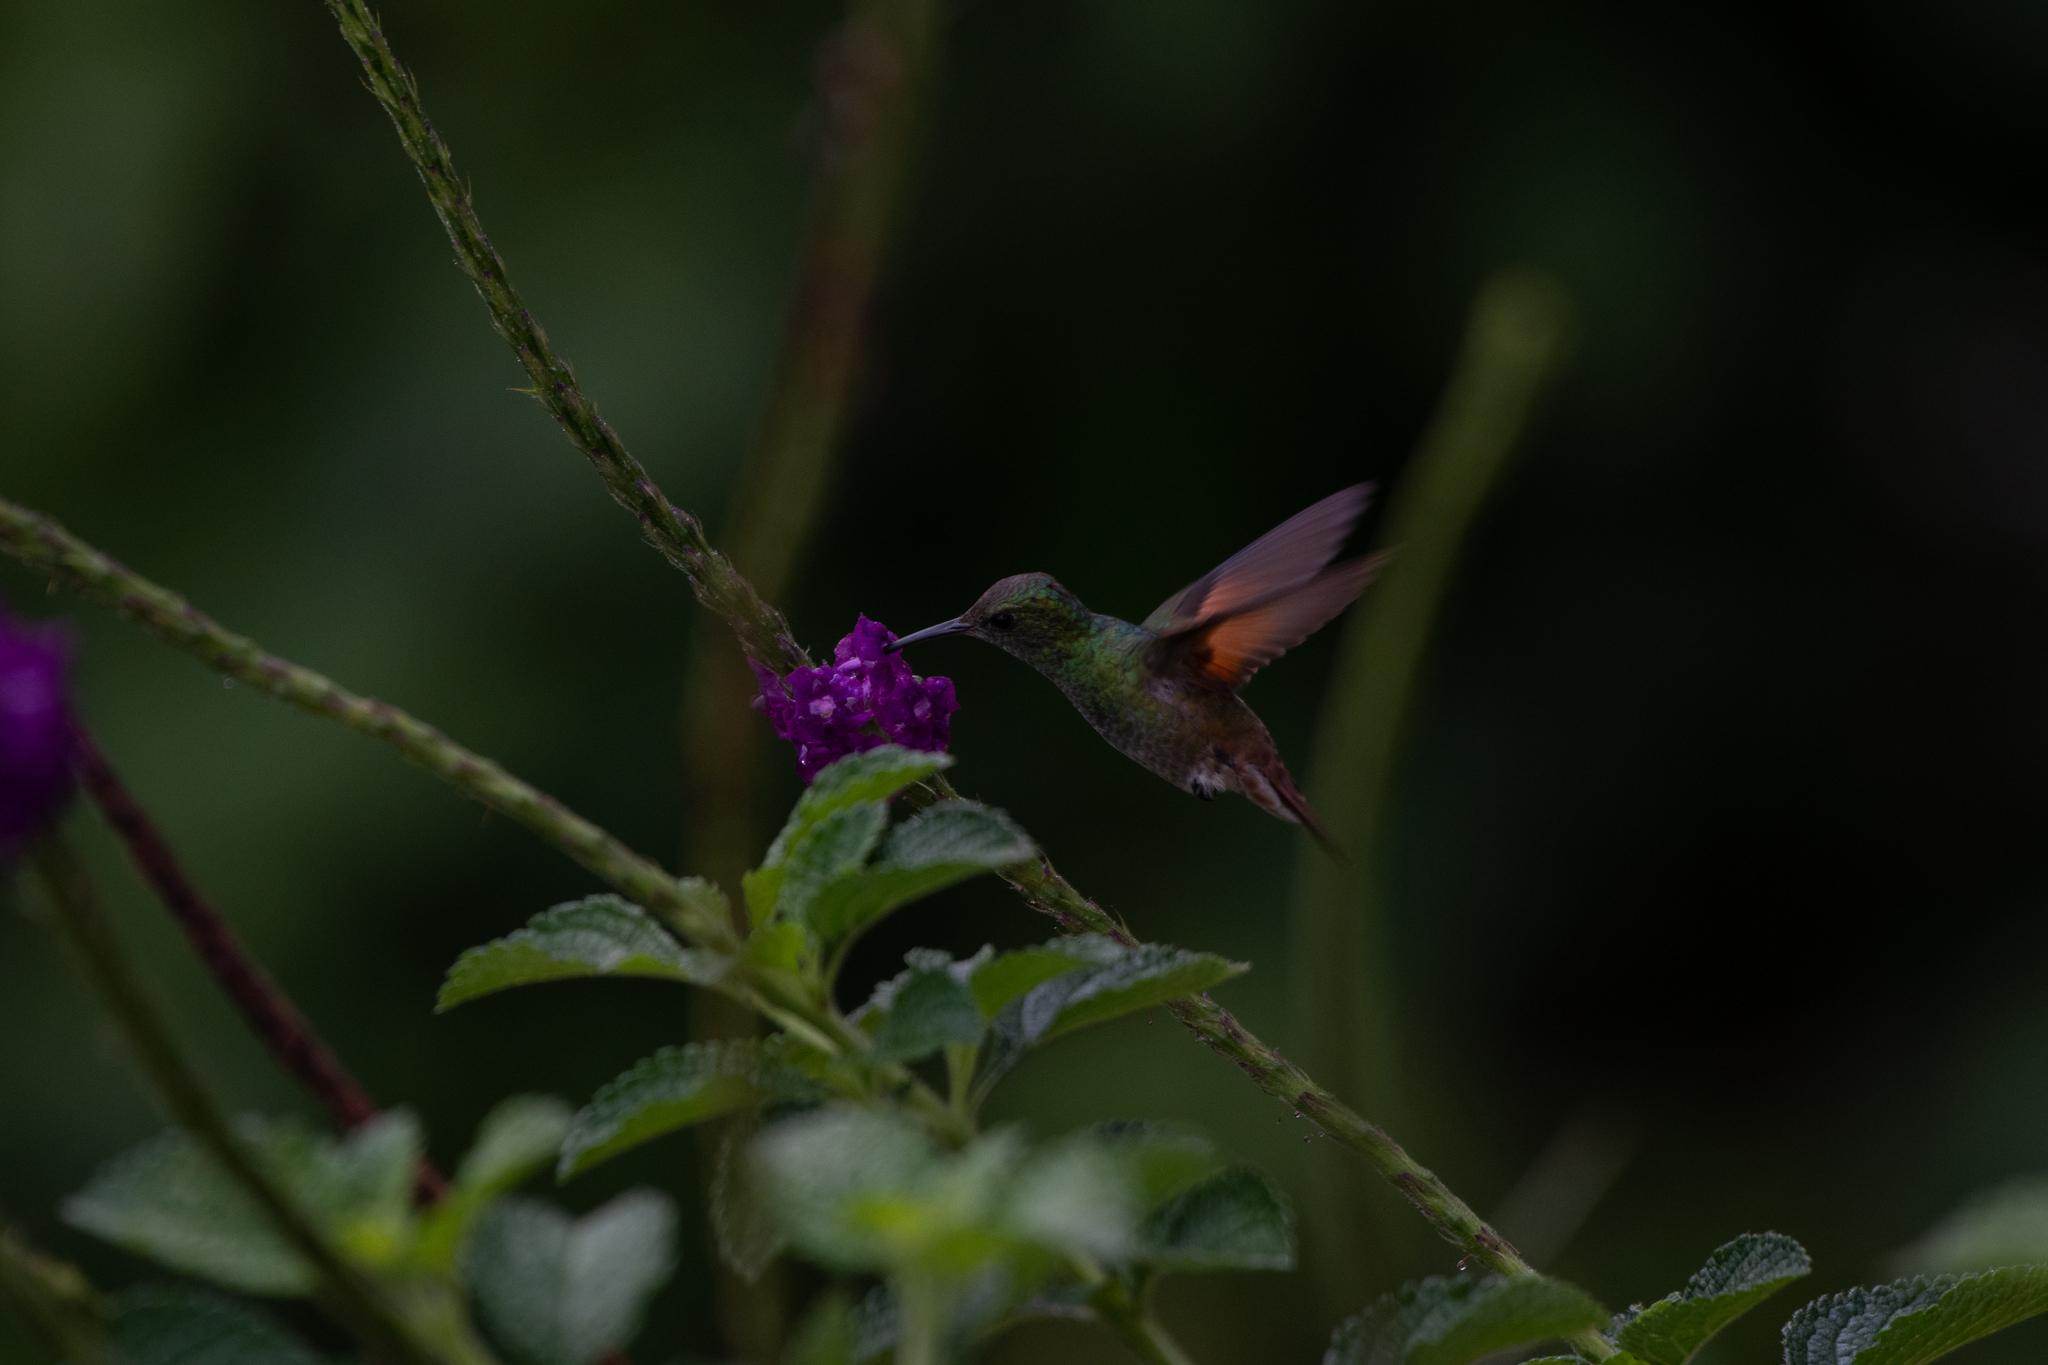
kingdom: Animalia
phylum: Chordata
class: Aves
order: Apodiformes
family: Trochilidae
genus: Saucerottia
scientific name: Saucerottia beryllina
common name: Berylline hummingbird
